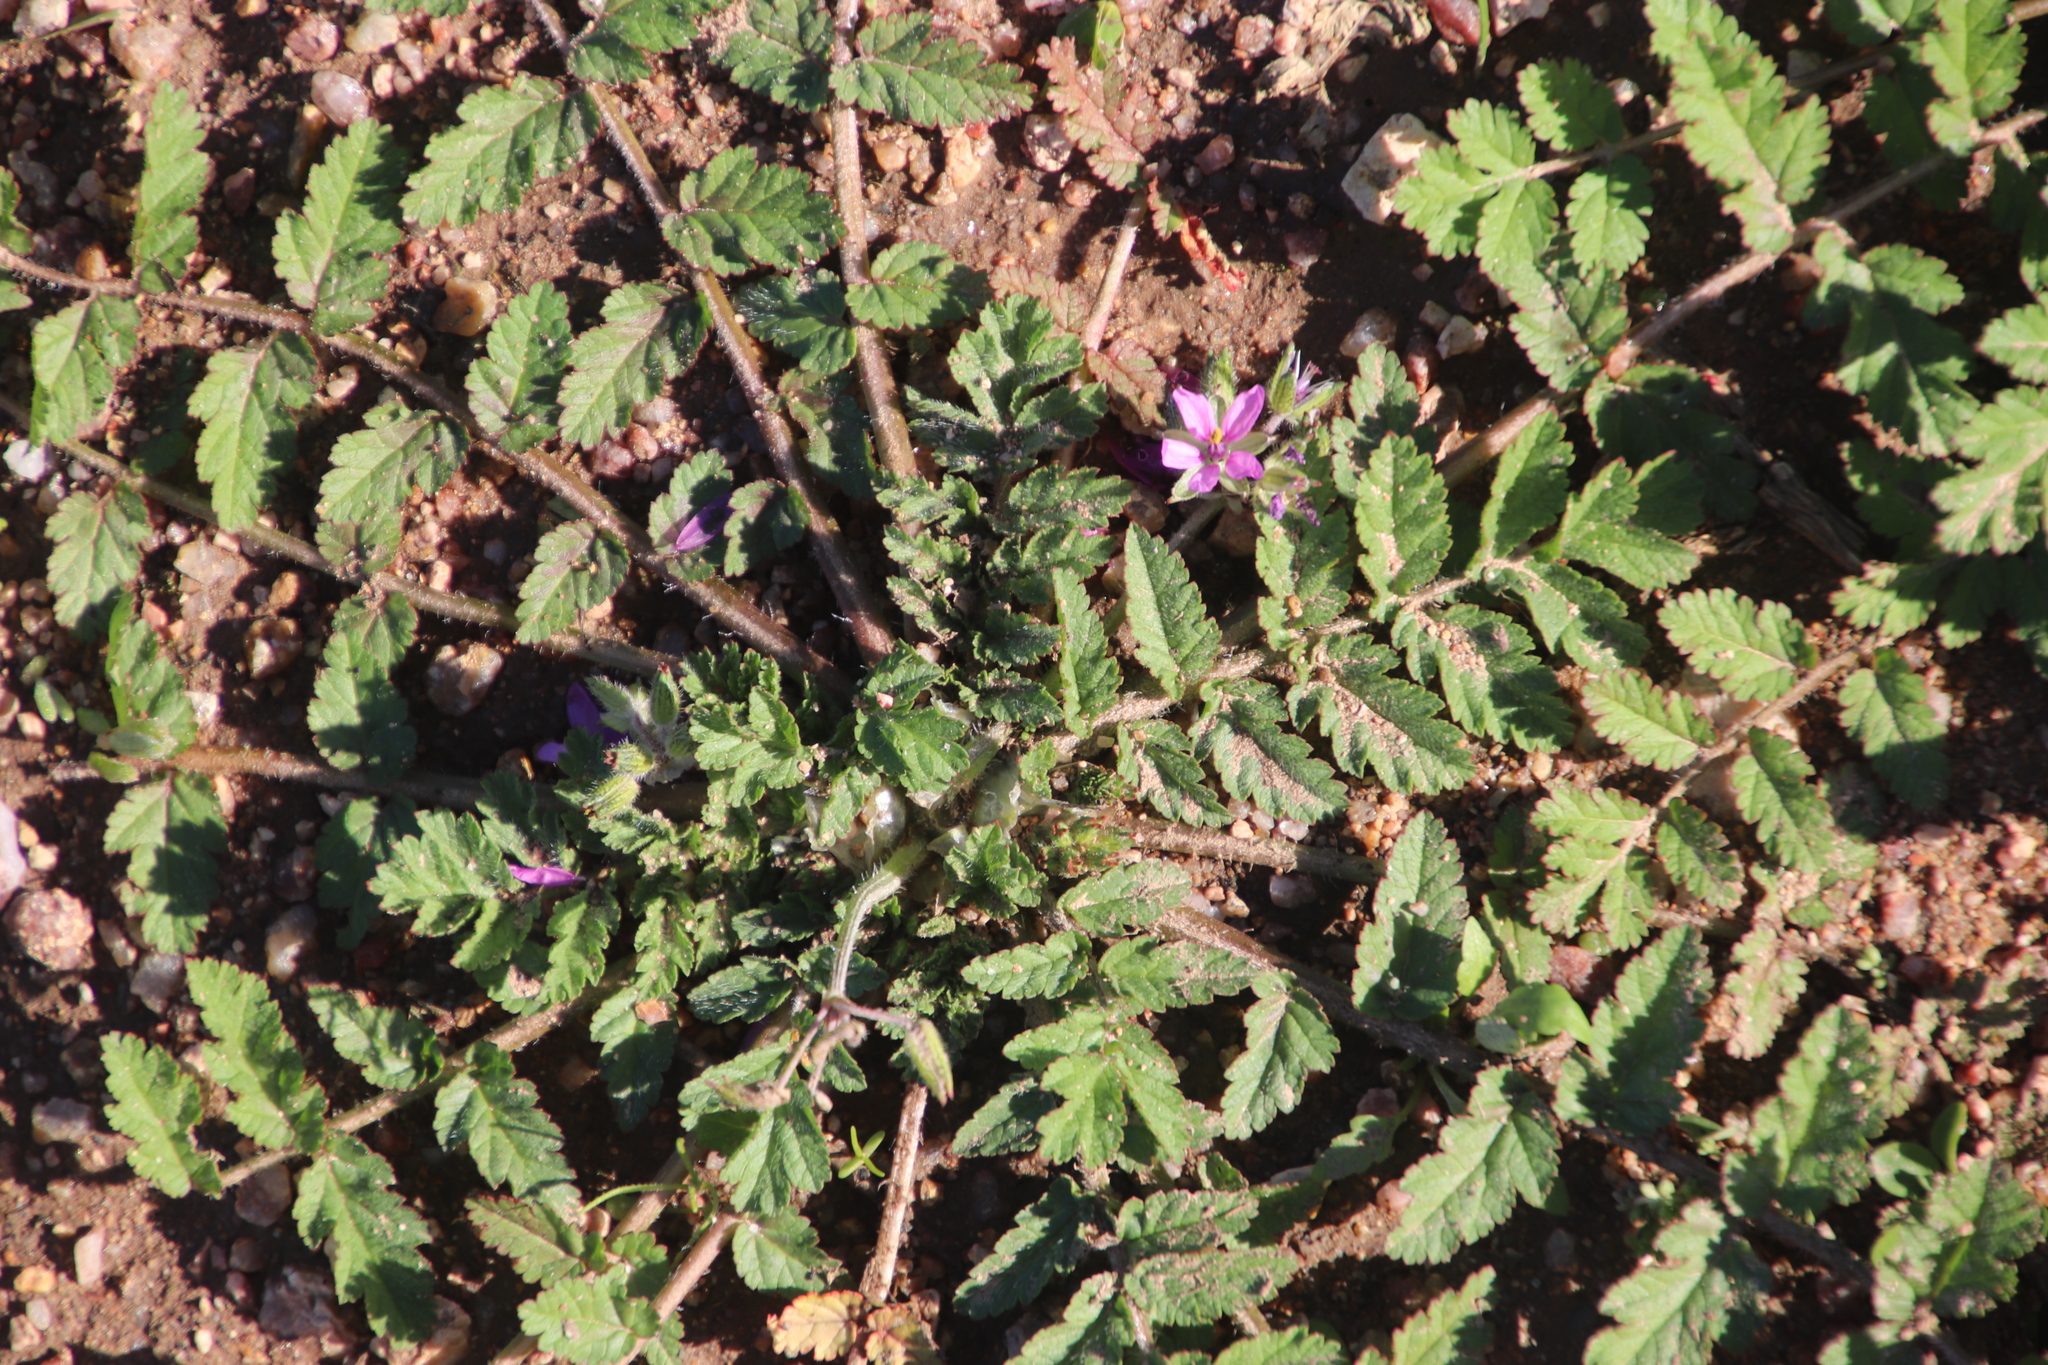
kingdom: Plantae
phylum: Tracheophyta
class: Magnoliopsida
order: Geraniales
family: Geraniaceae
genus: Erodium
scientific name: Erodium moschatum
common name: Musk stork's-bill
